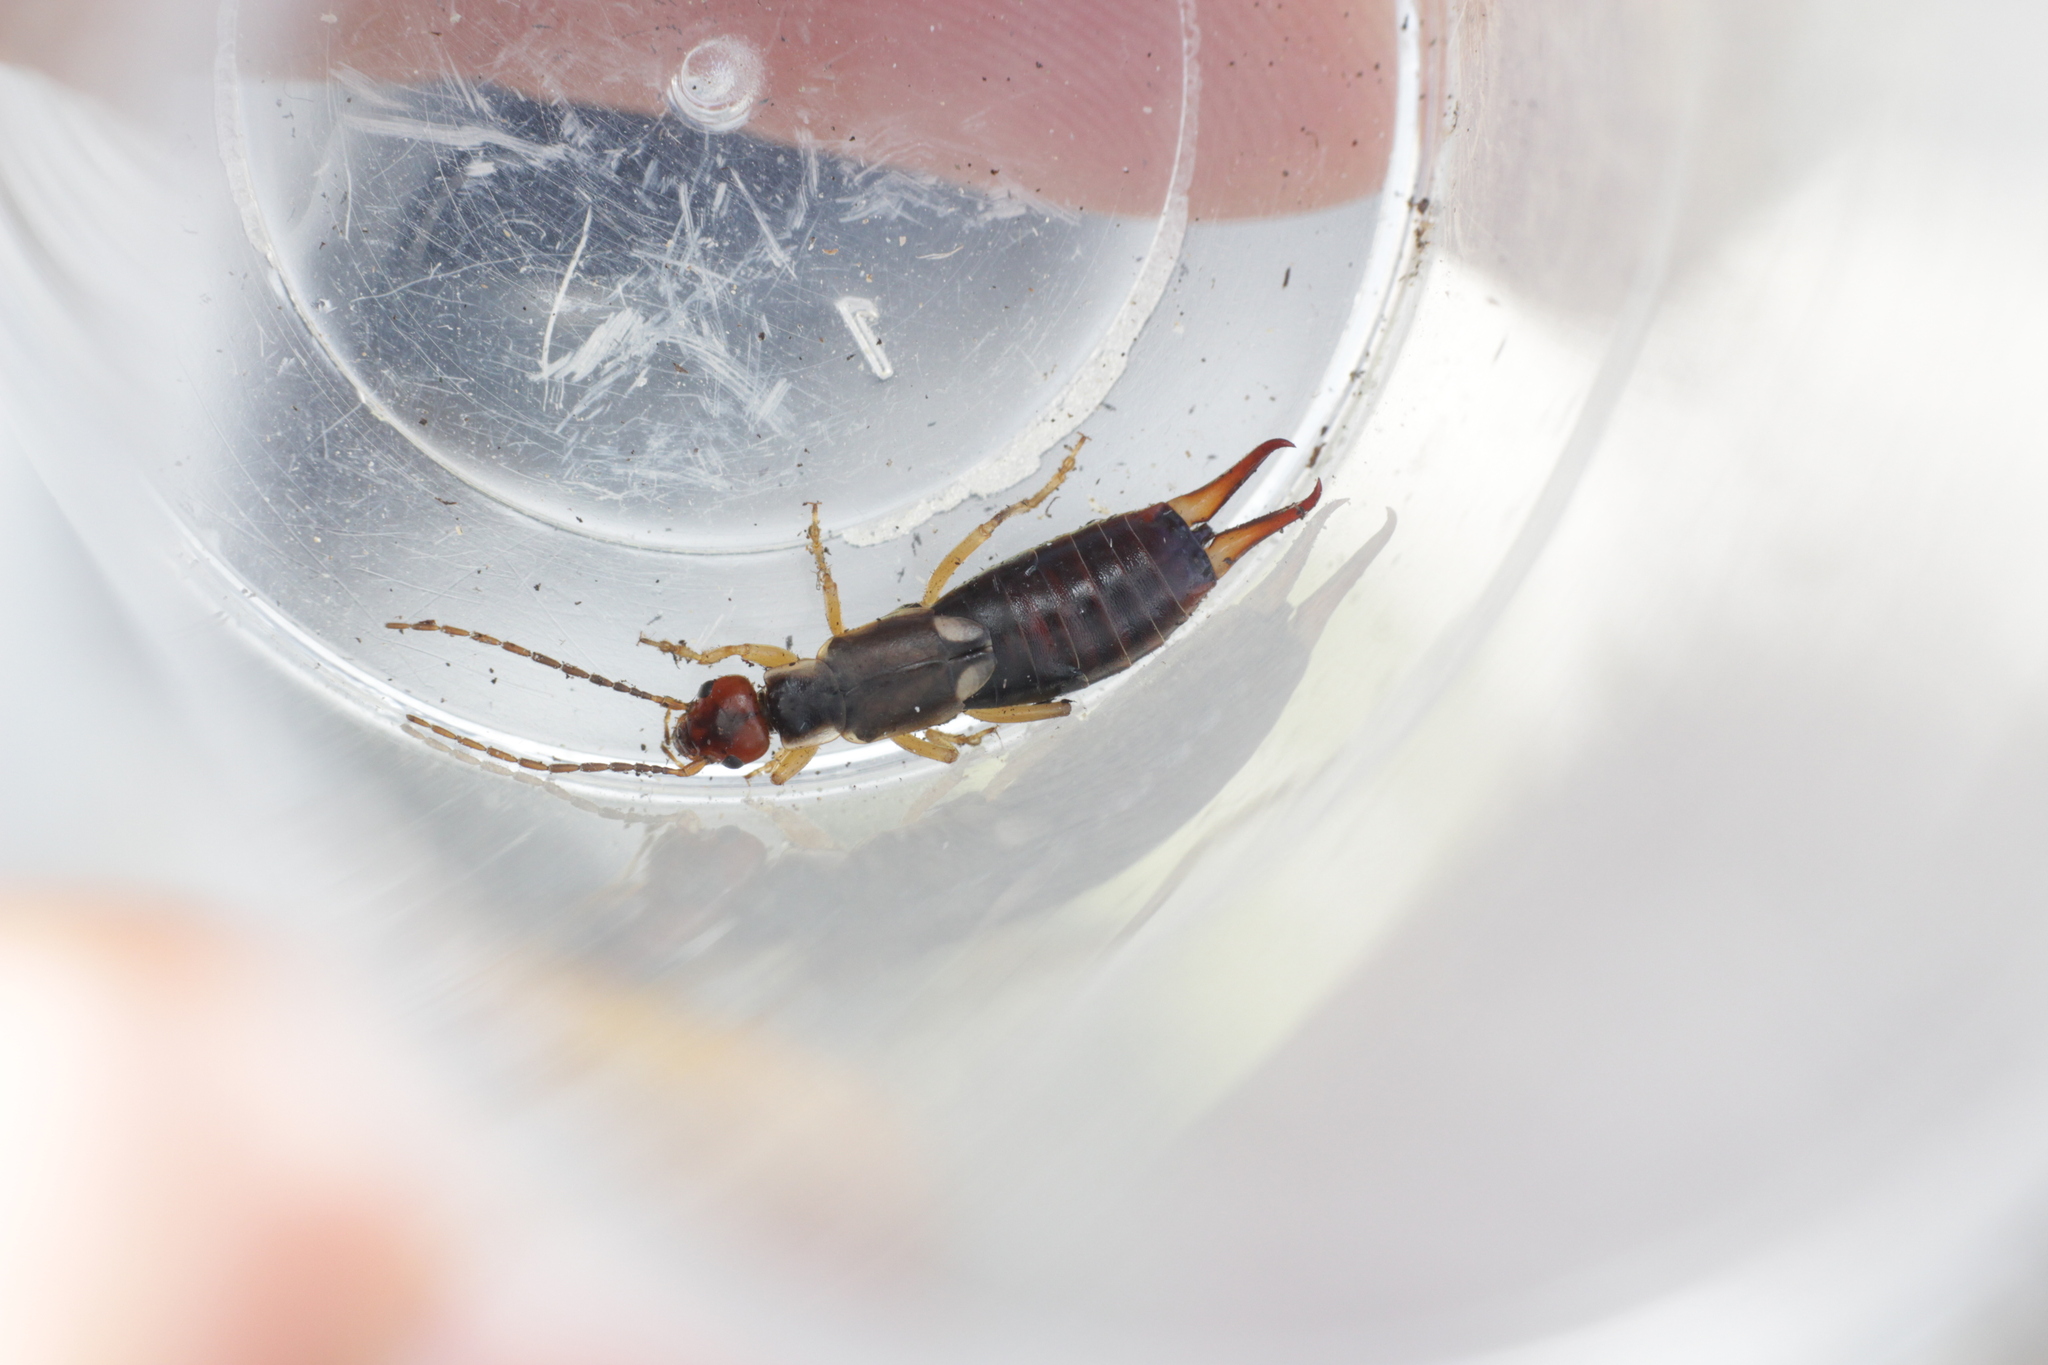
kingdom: Animalia
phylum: Arthropoda
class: Insecta
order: Dermaptera
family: Forficulidae
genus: Forficula
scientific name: Forficula
